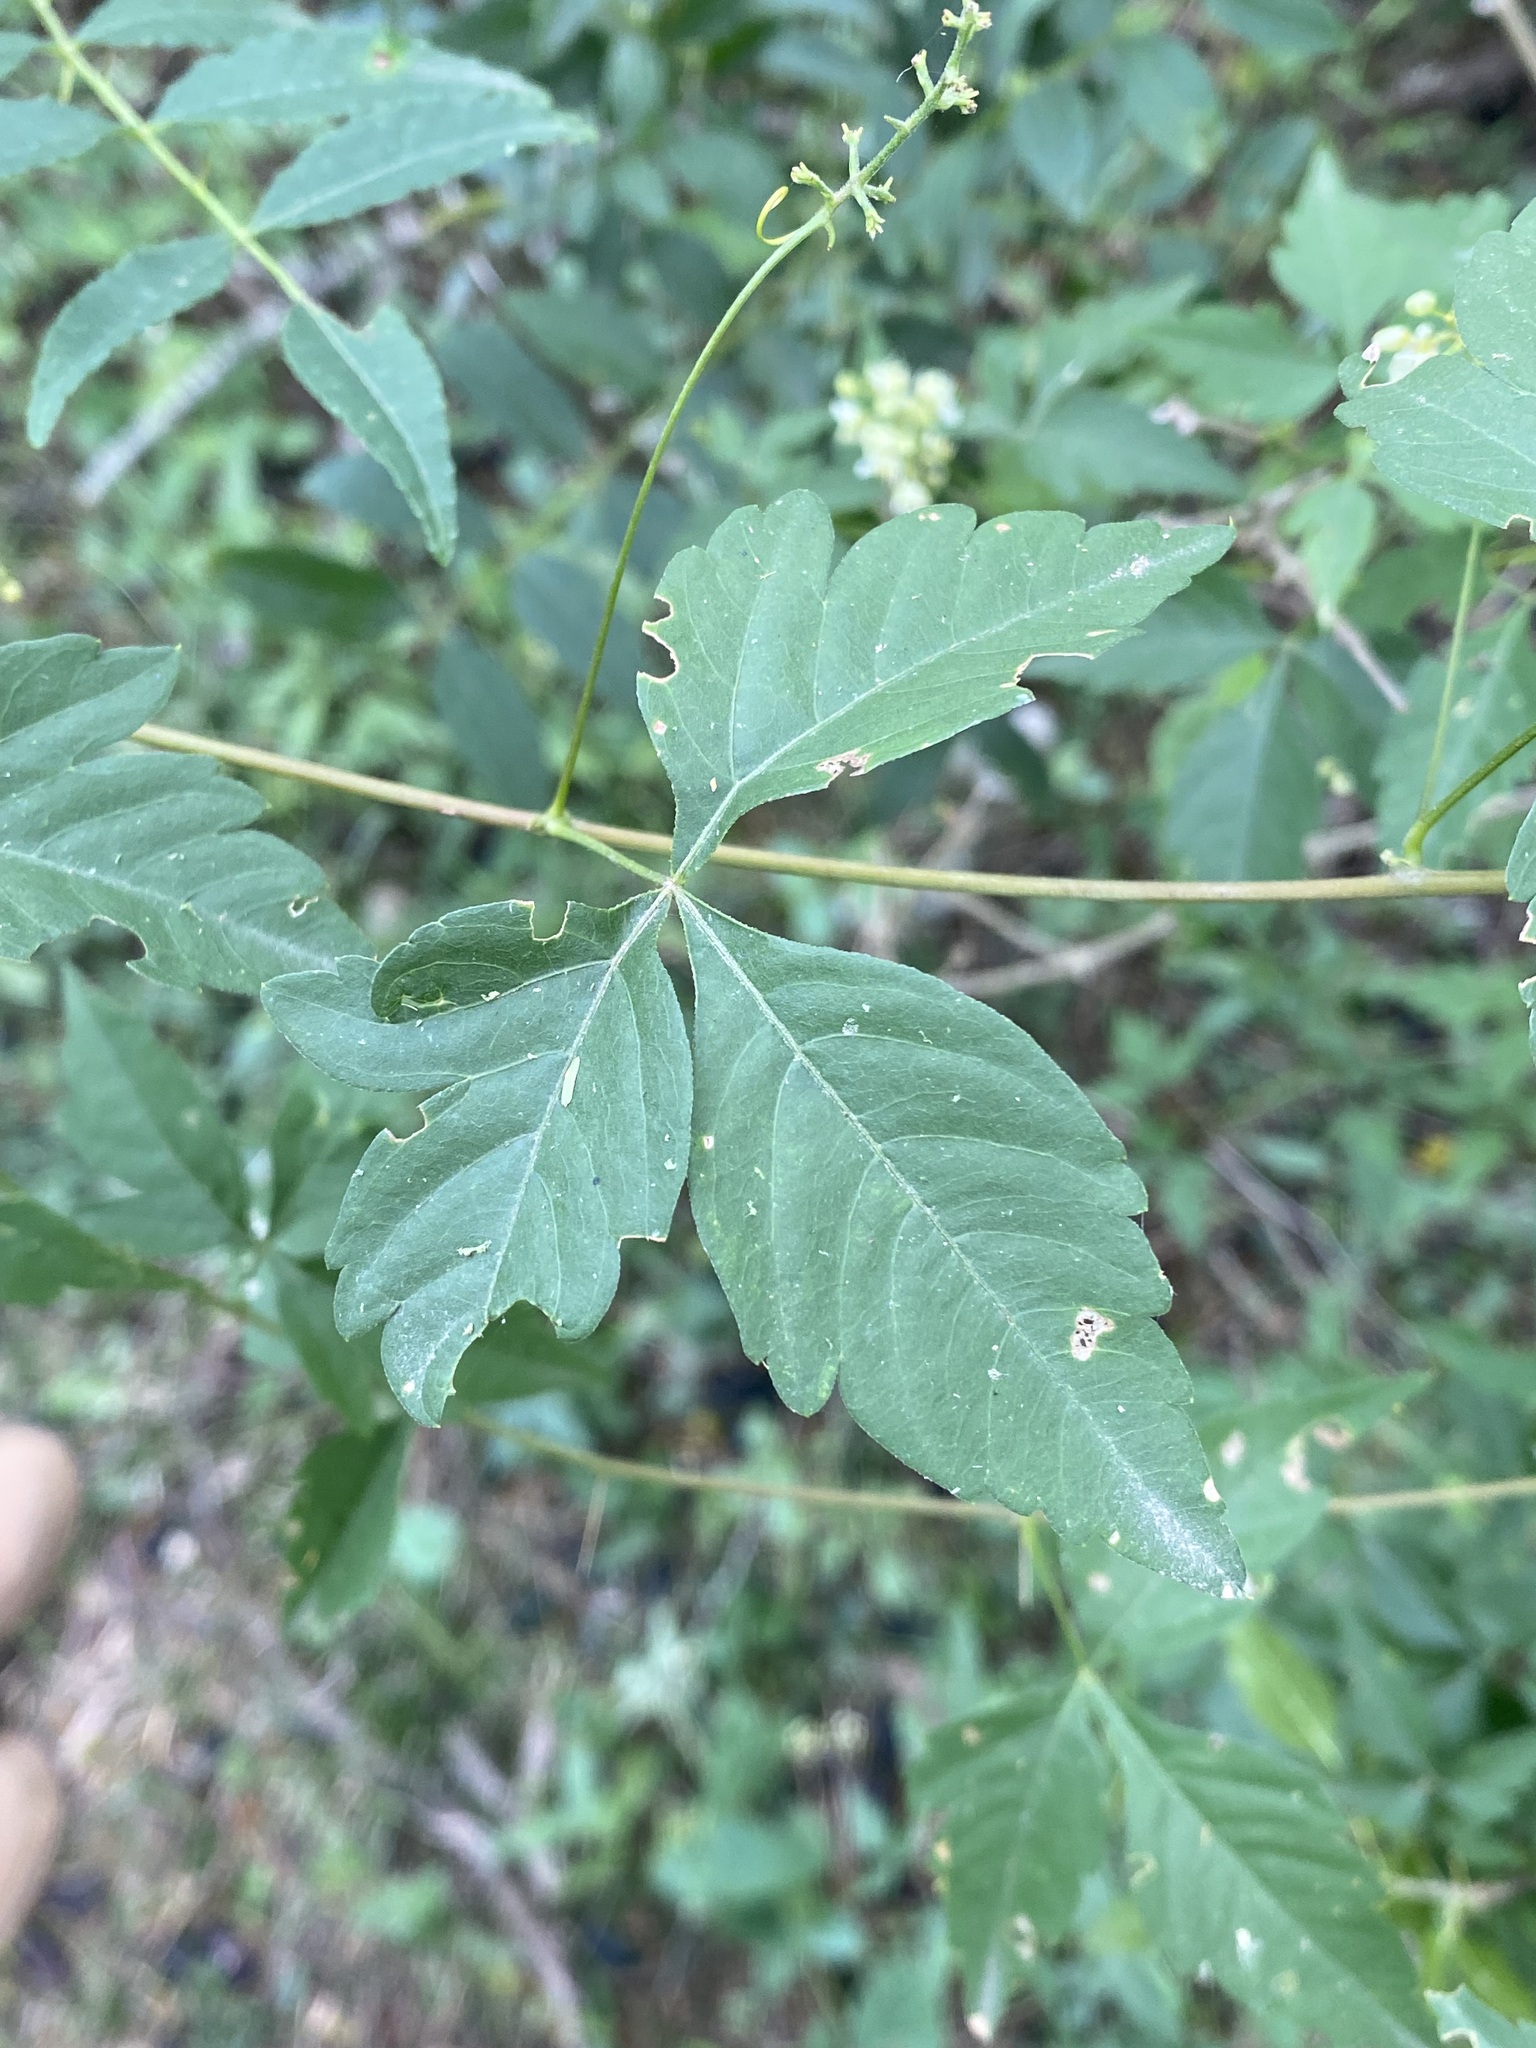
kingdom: Plantae
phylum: Tracheophyta
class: Magnoliopsida
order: Sapindales
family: Sapindaceae
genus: Urvillea
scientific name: Urvillea uniloba
